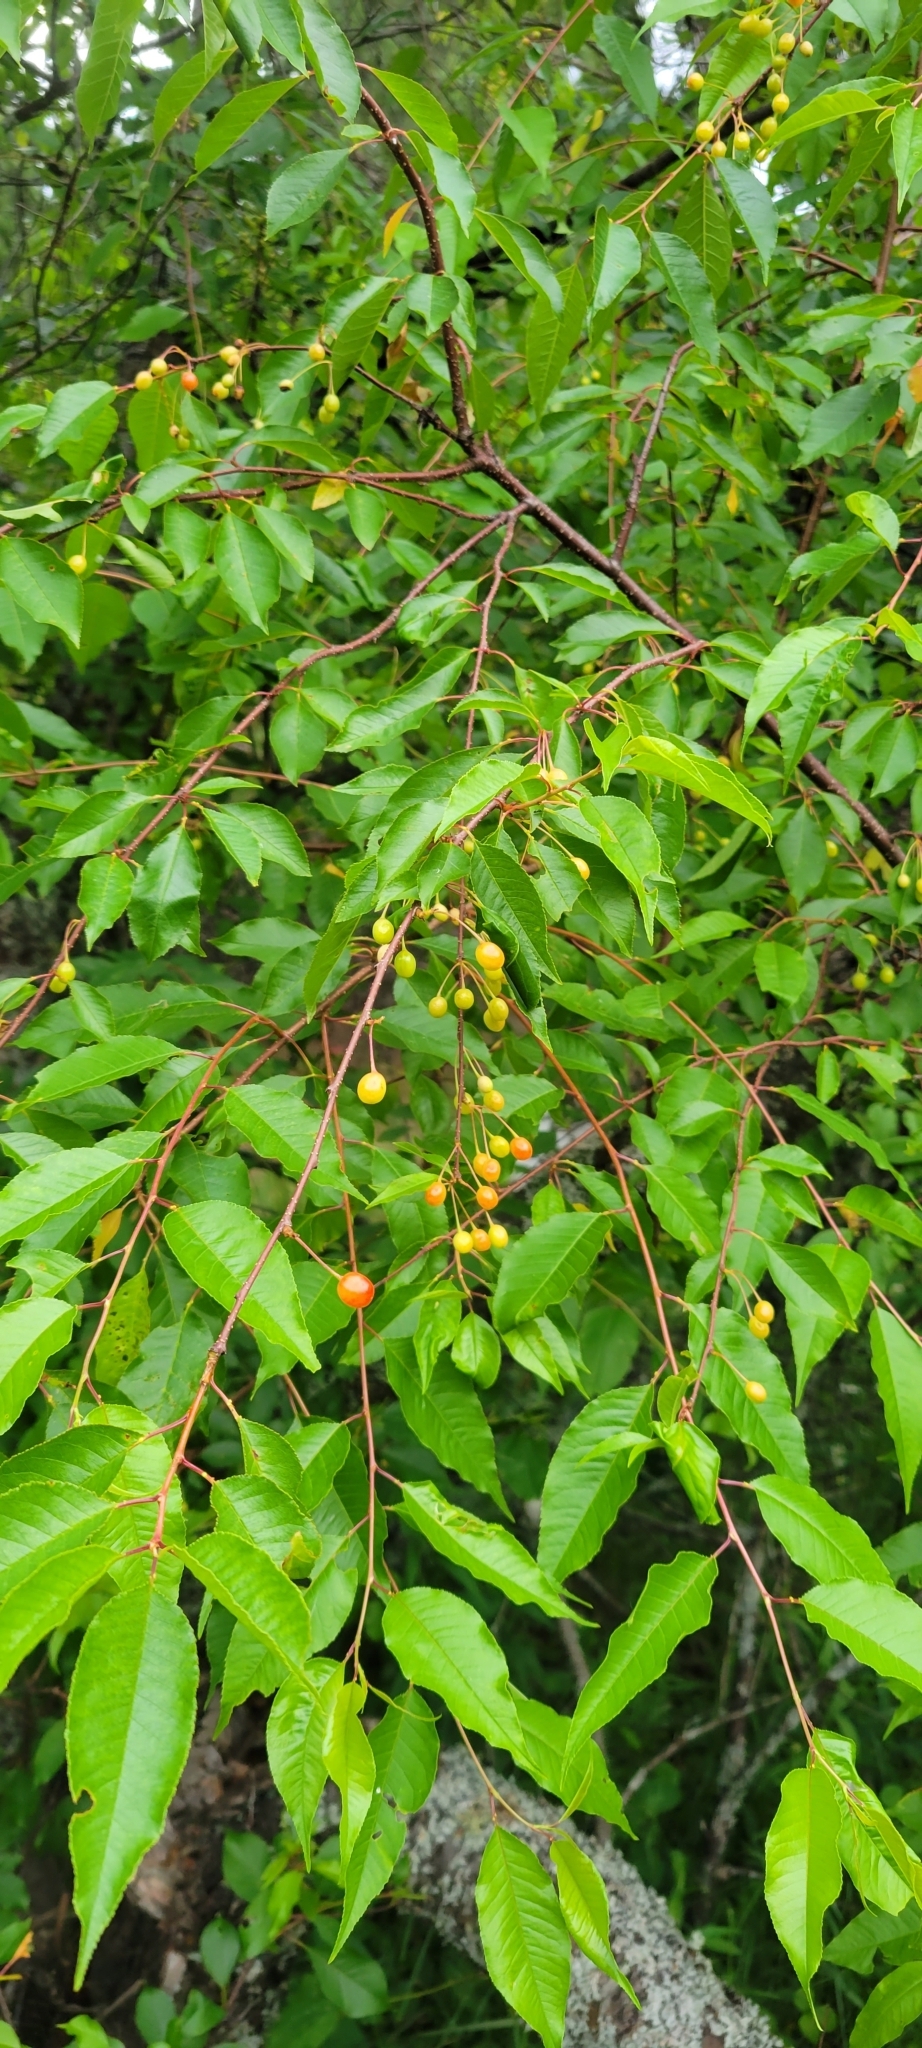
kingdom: Plantae
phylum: Tracheophyta
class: Magnoliopsida
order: Rosales
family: Rosaceae
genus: Prunus
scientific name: Prunus pensylvanica
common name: Pin cherry
